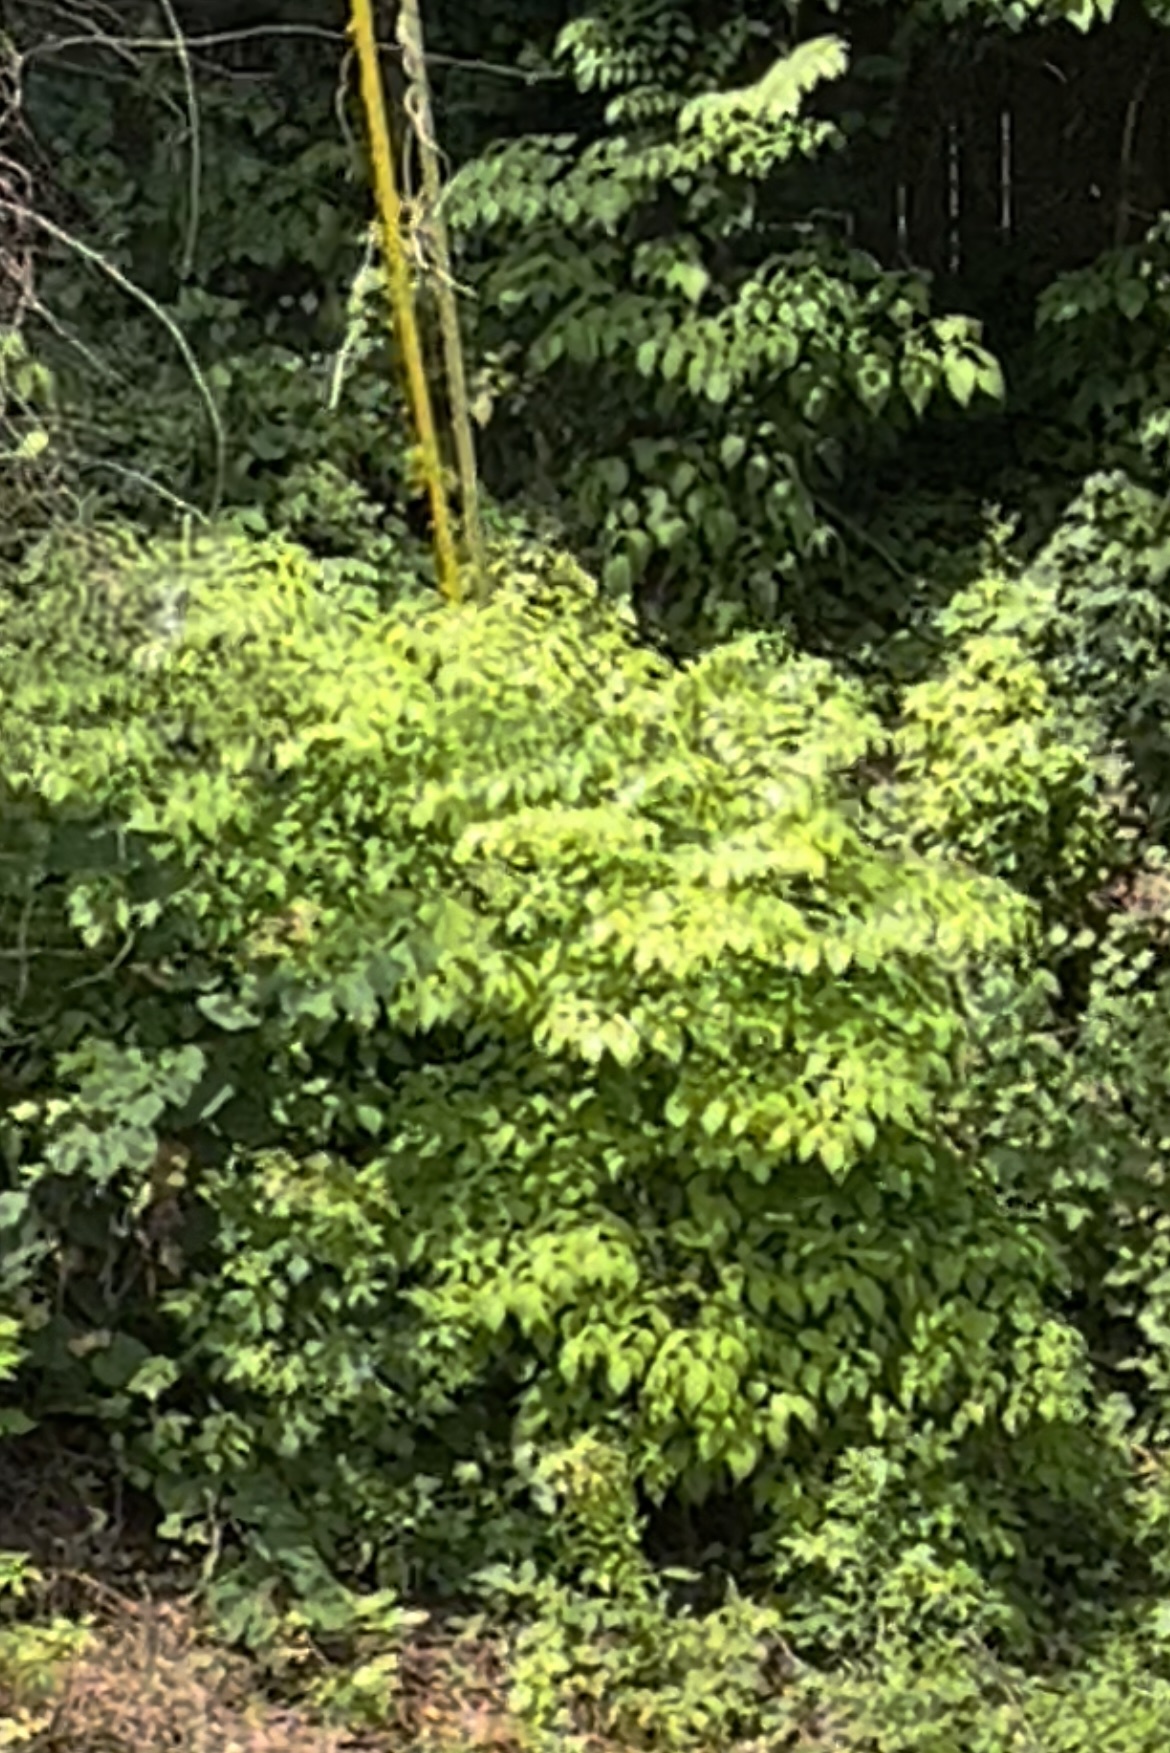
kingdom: Plantae
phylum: Tracheophyta
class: Magnoliopsida
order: Apiales
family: Araliaceae
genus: Aralia
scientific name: Aralia spinosa
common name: Hercules'-club
